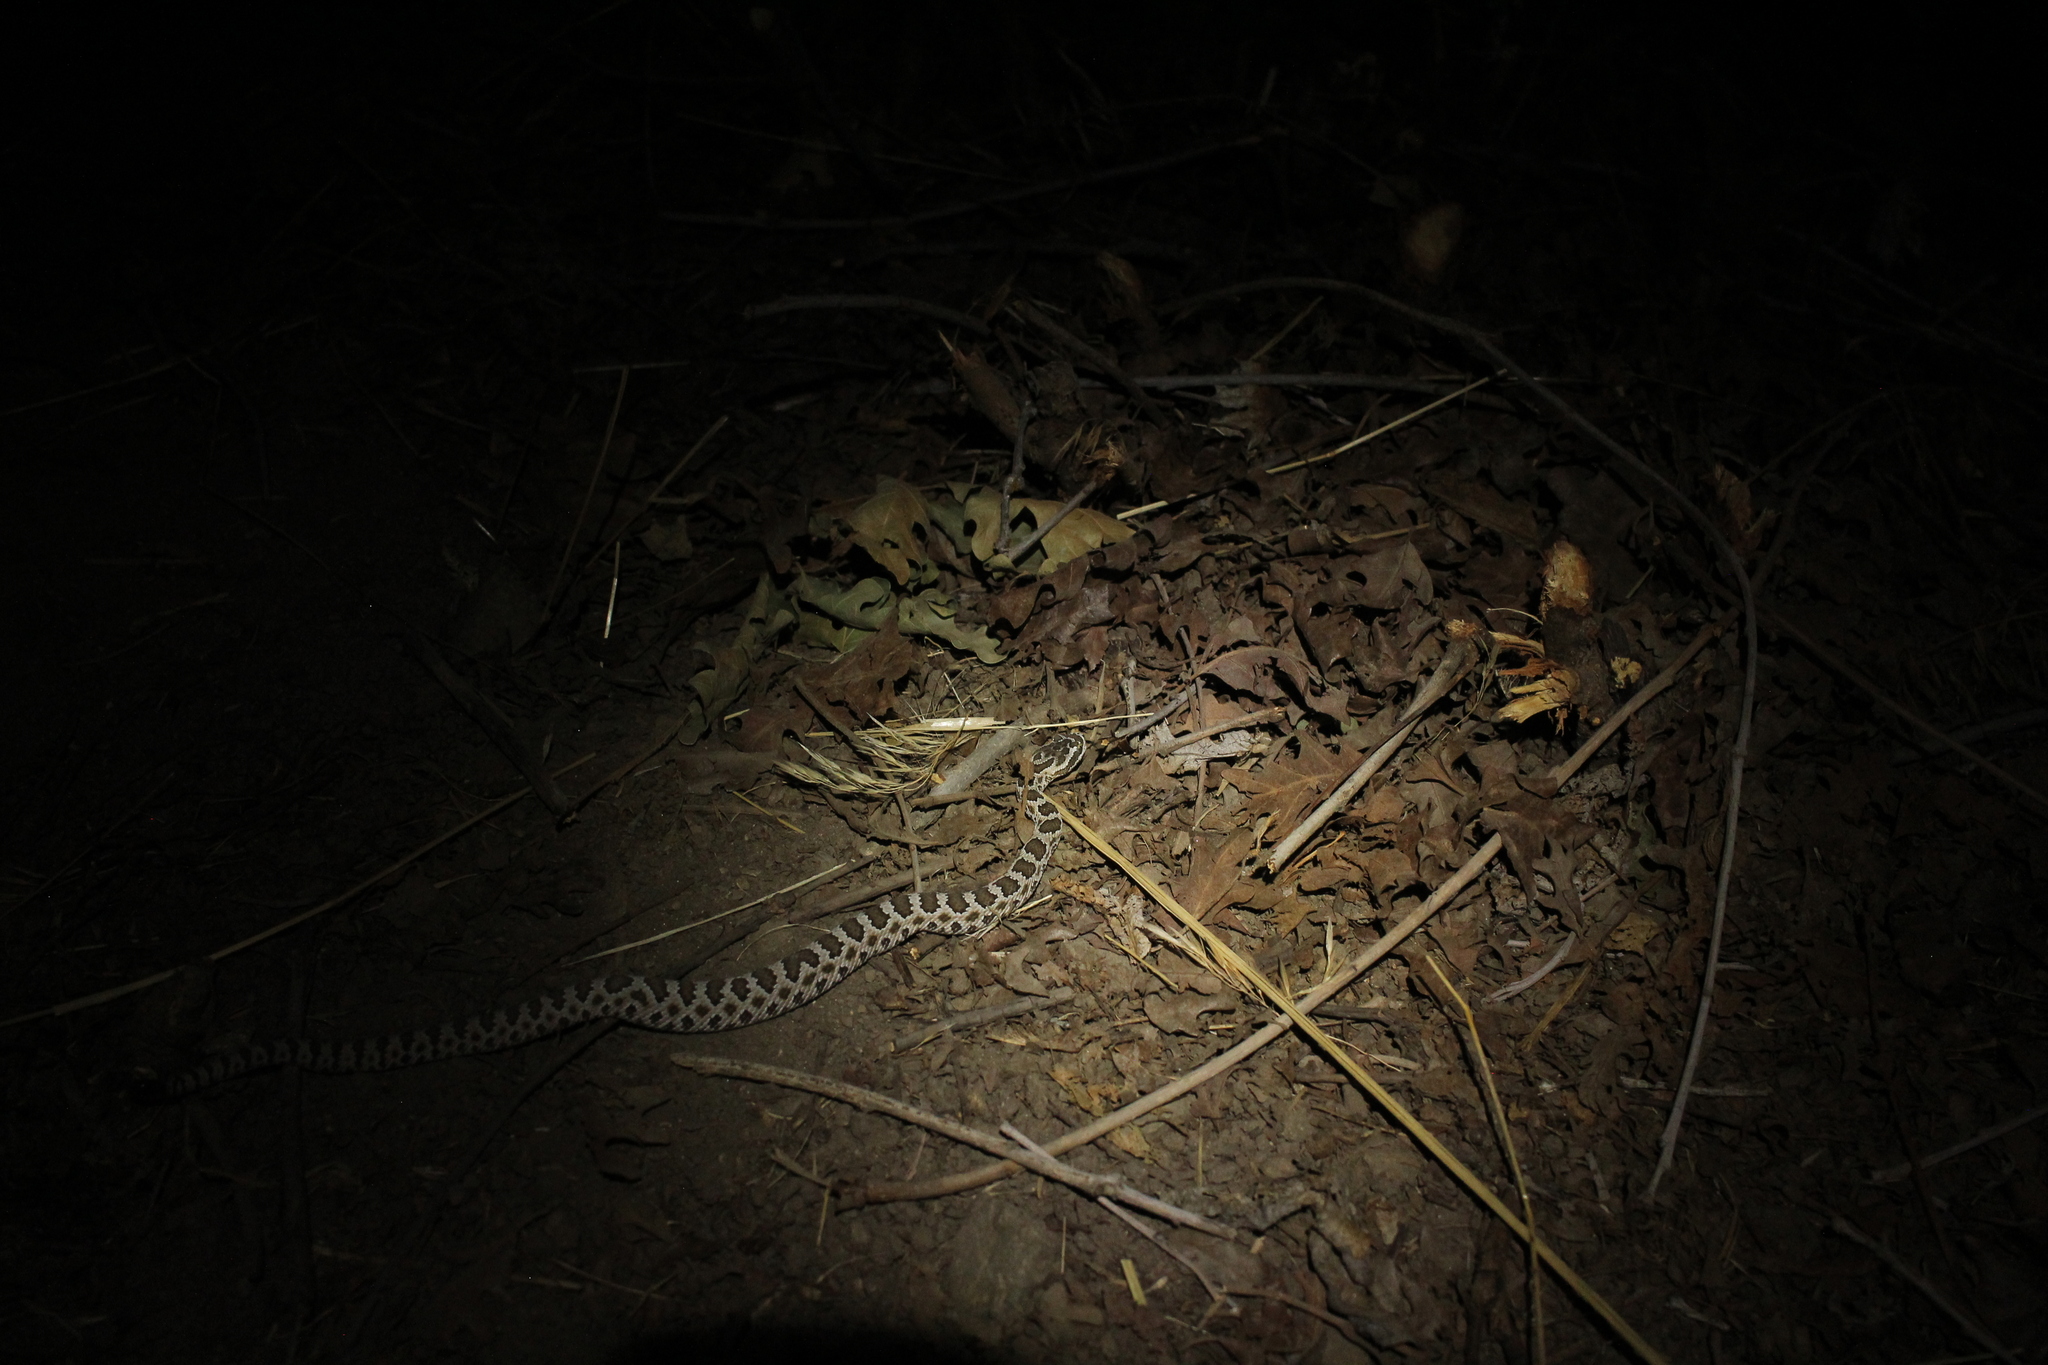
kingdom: Animalia
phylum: Chordata
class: Squamata
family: Viperidae
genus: Crotalus
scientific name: Crotalus oreganus
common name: Abyssus
